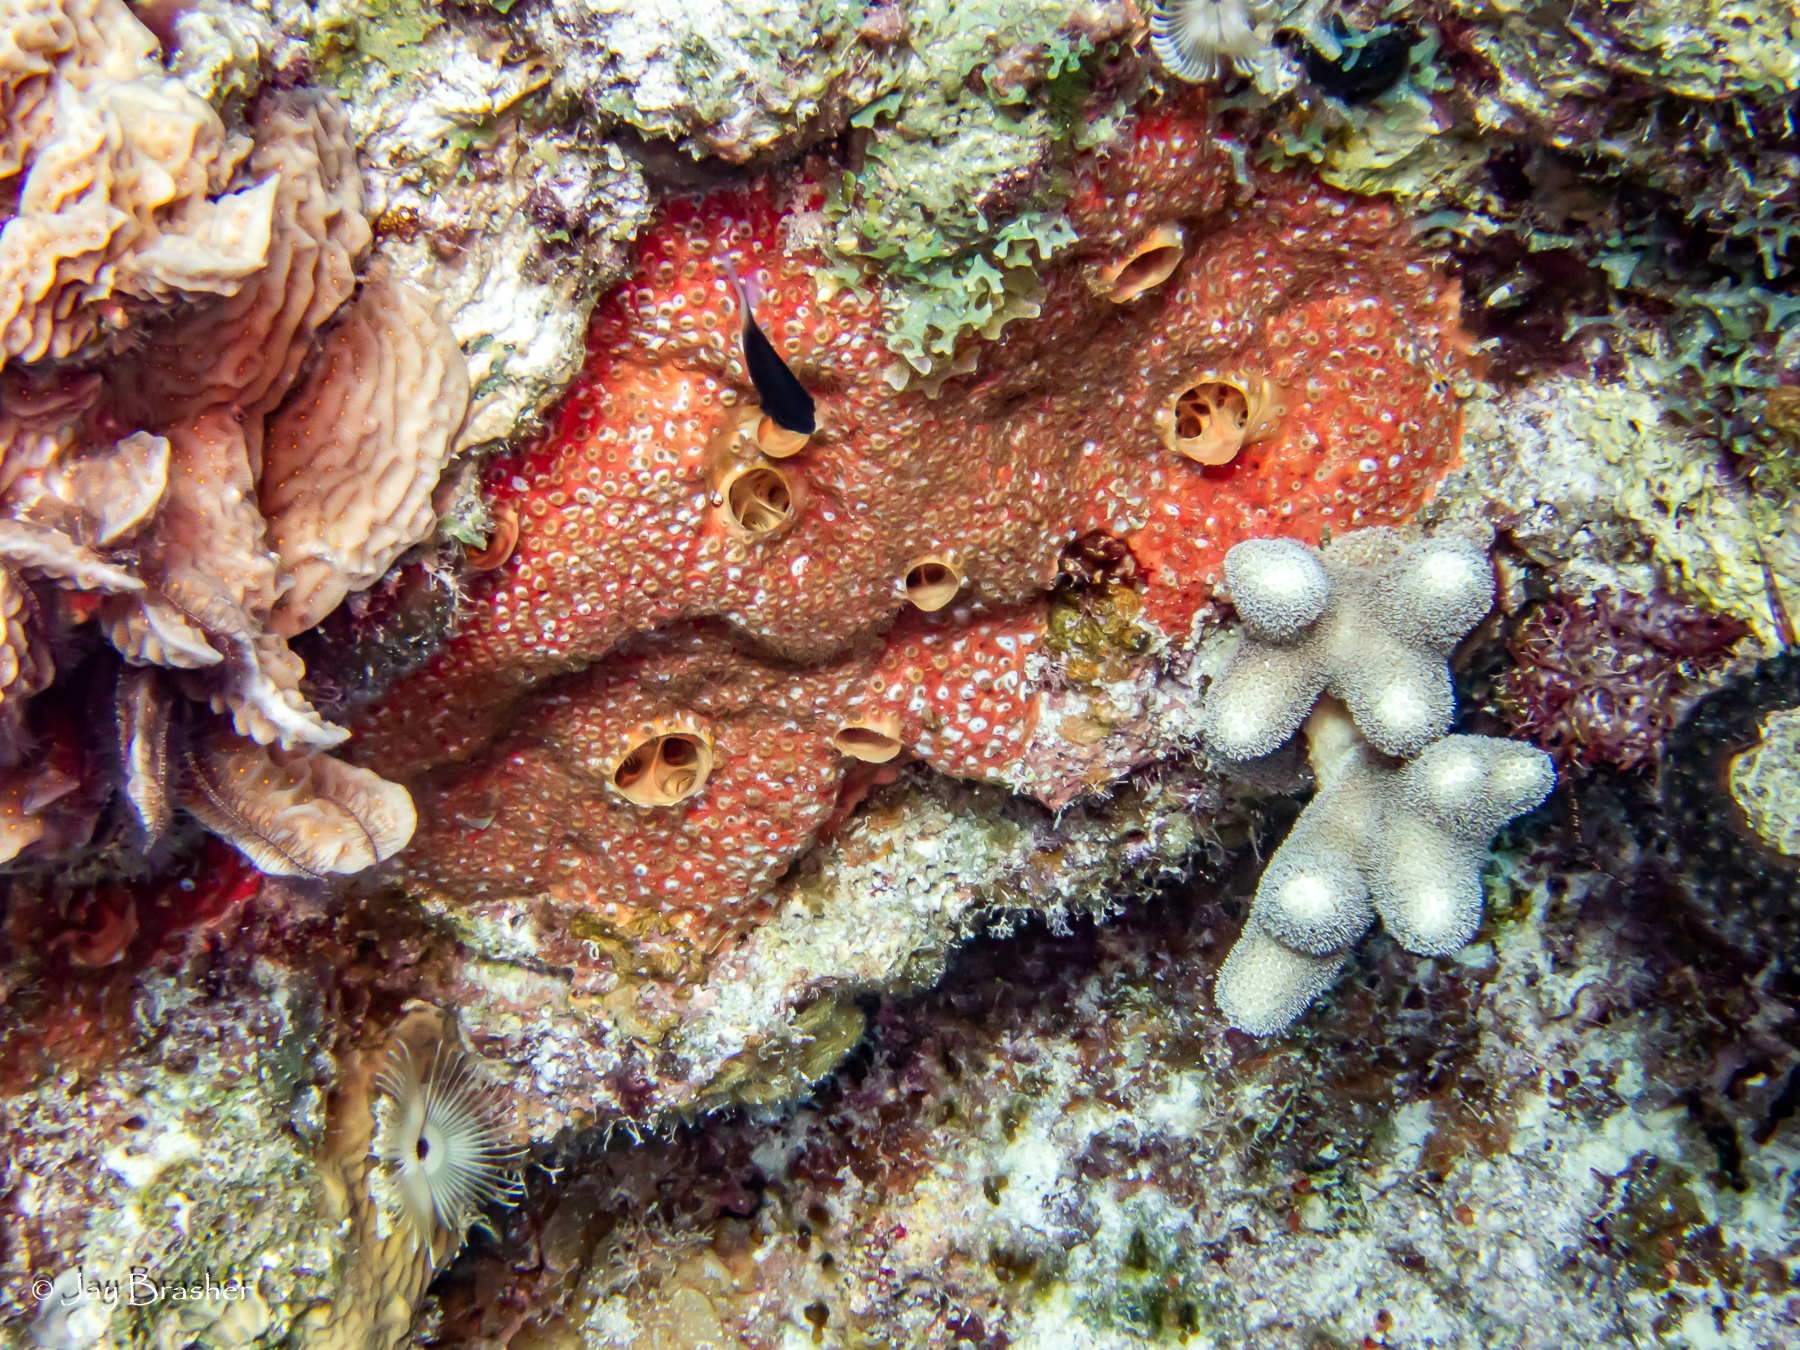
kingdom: Animalia
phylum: Porifera
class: Demospongiae
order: Clionaida
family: Clionaidae
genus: Cliothosa
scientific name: Cliothosa delitrix
